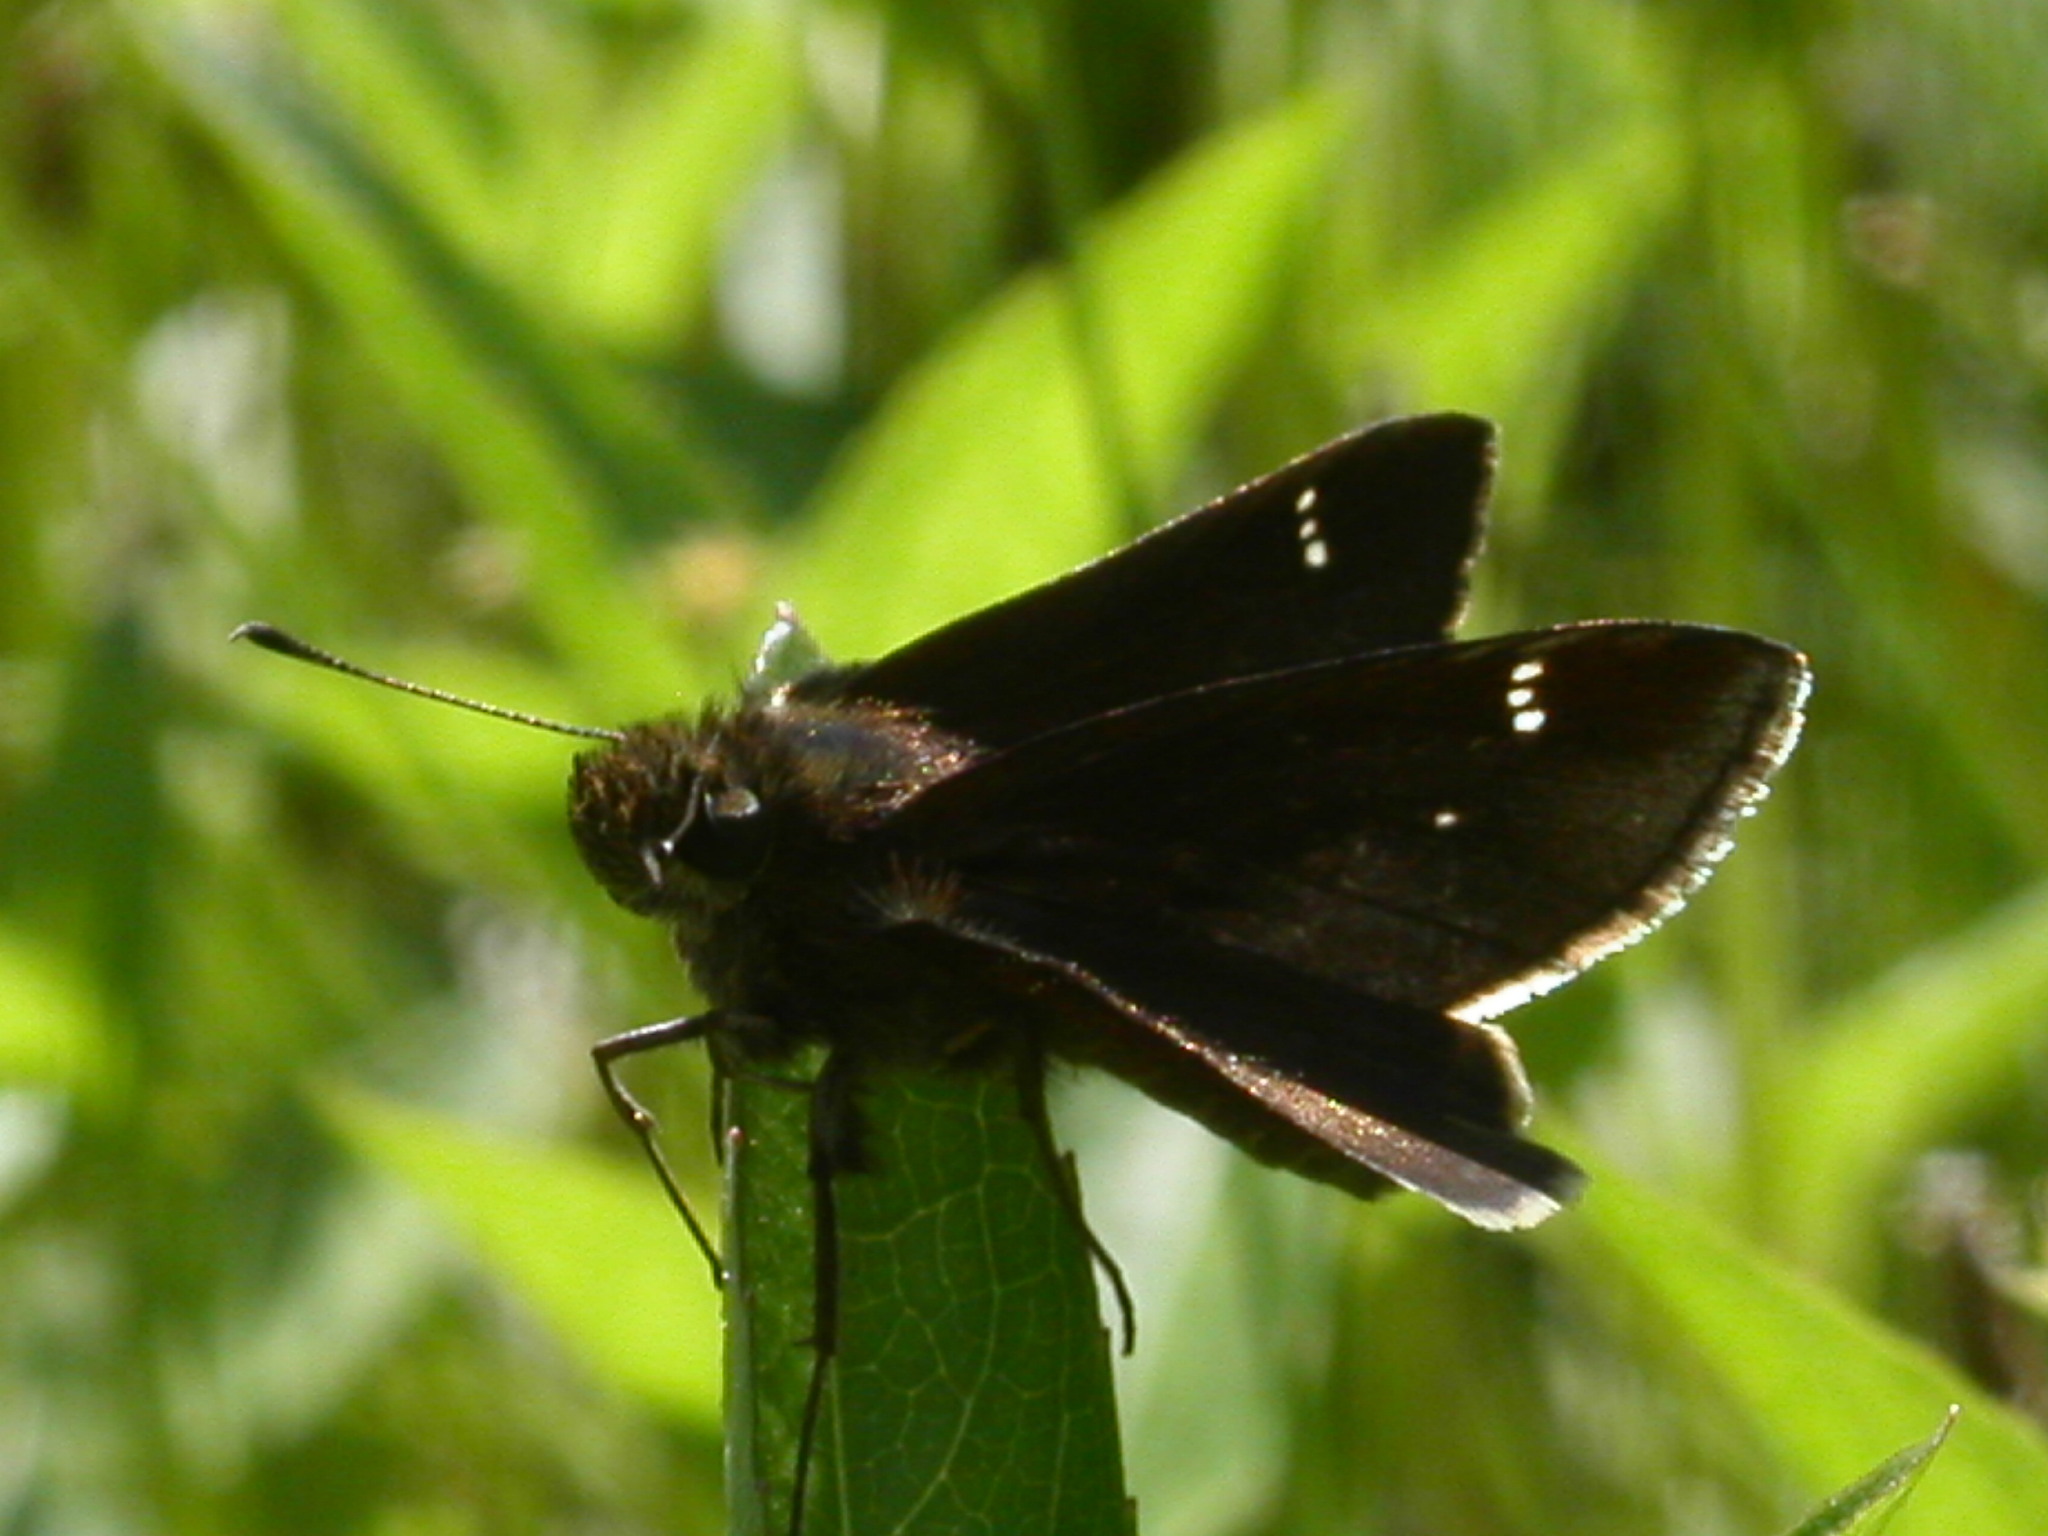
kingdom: Animalia
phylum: Arthropoda
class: Insecta
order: Lepidoptera
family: Hesperiidae
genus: Lerema
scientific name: Lerema accius
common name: Clouded skipper
